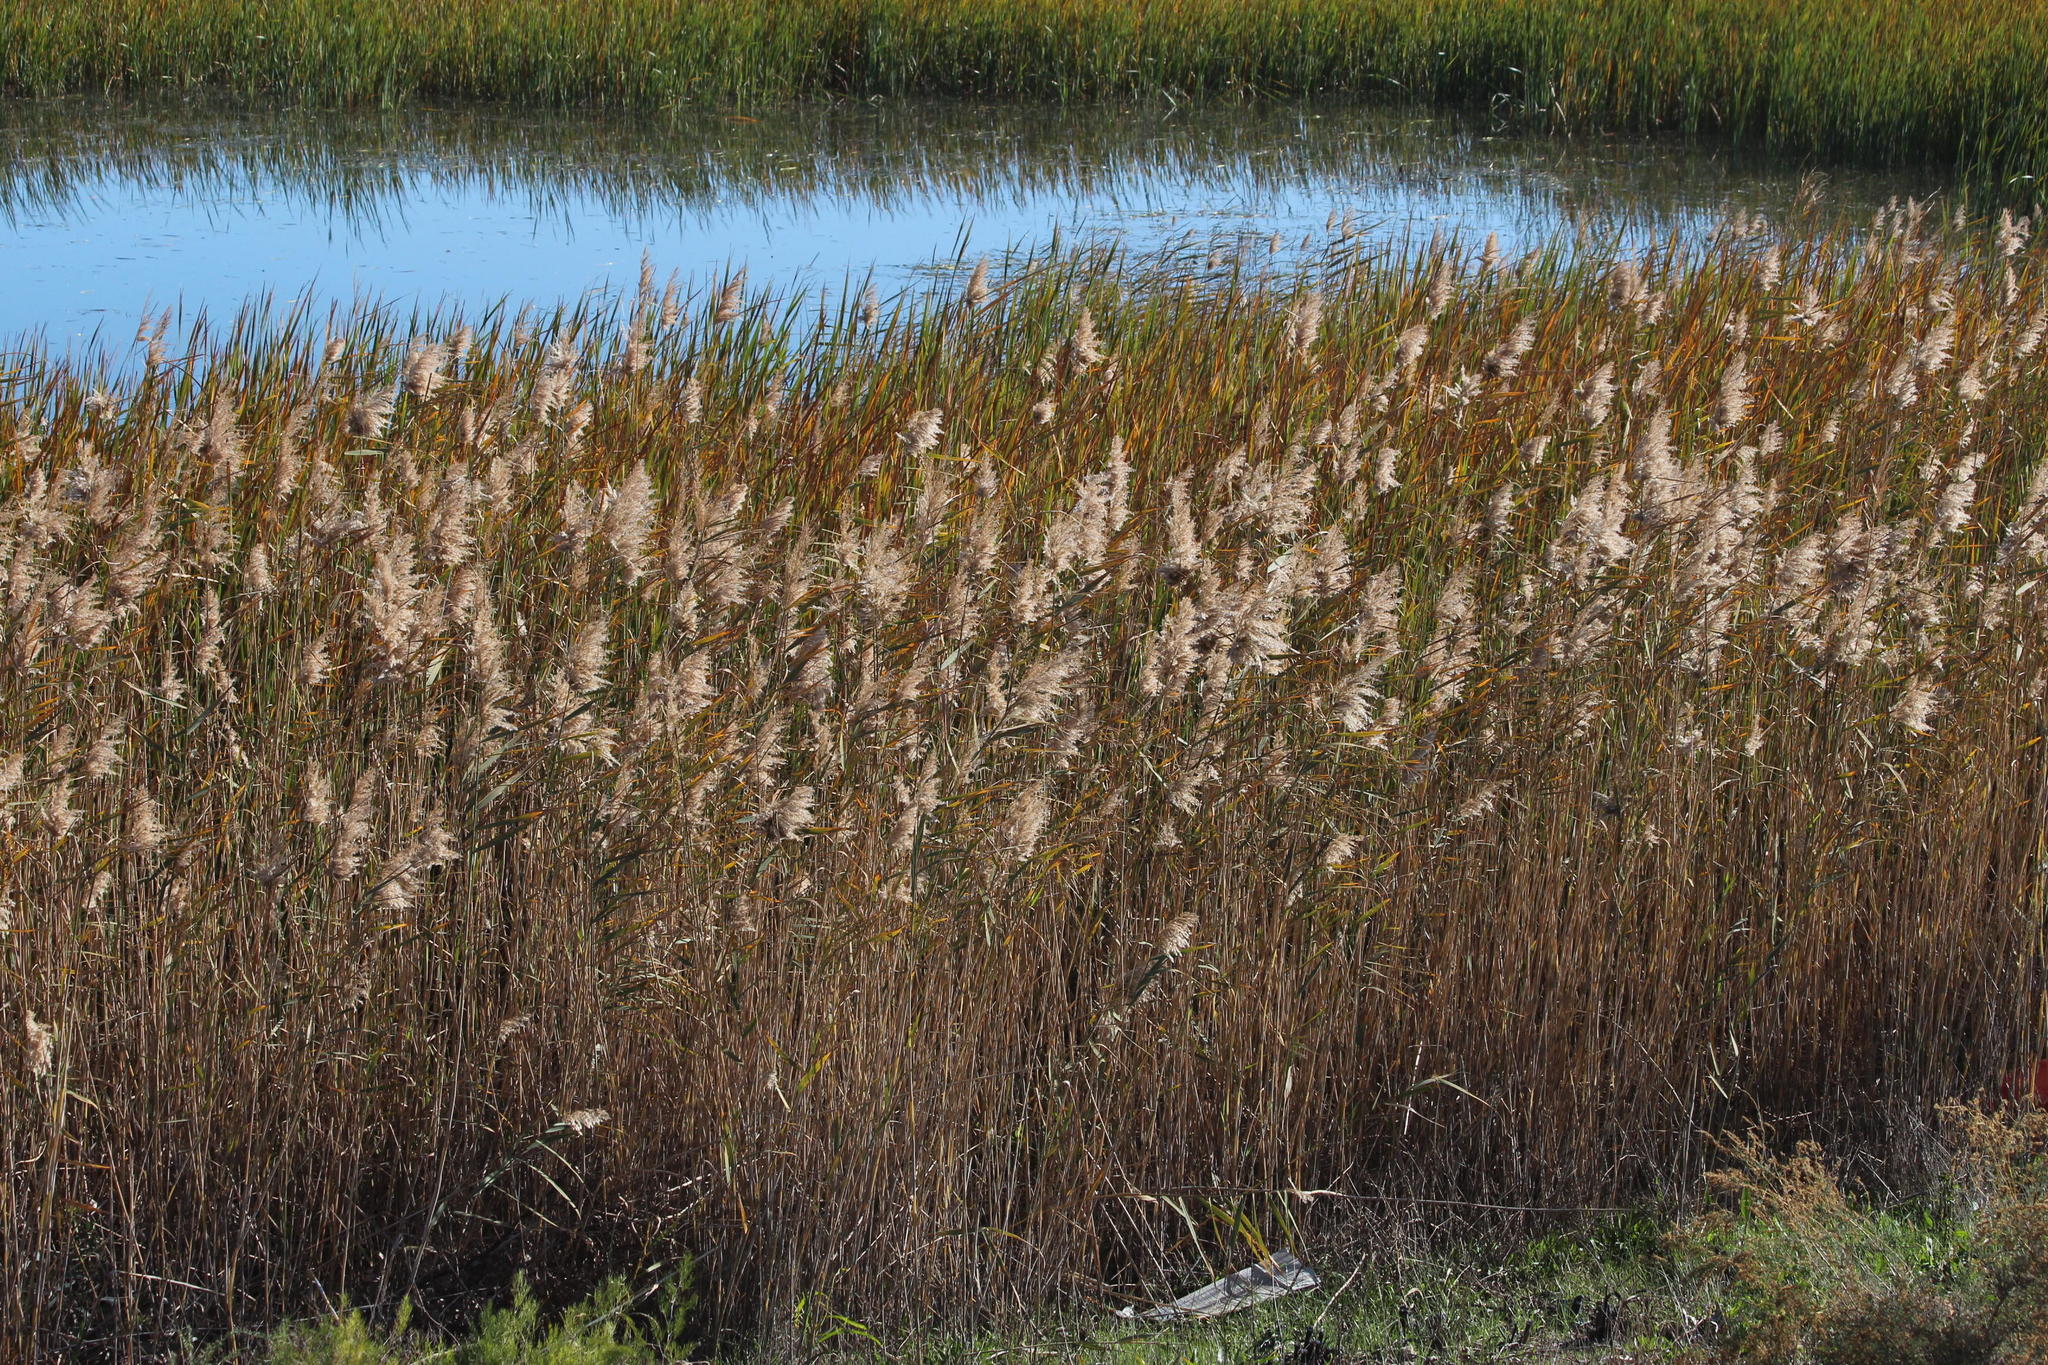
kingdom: Plantae
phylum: Tracheophyta
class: Liliopsida
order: Poales
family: Poaceae
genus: Phragmites
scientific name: Phragmites australis
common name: Common reed
